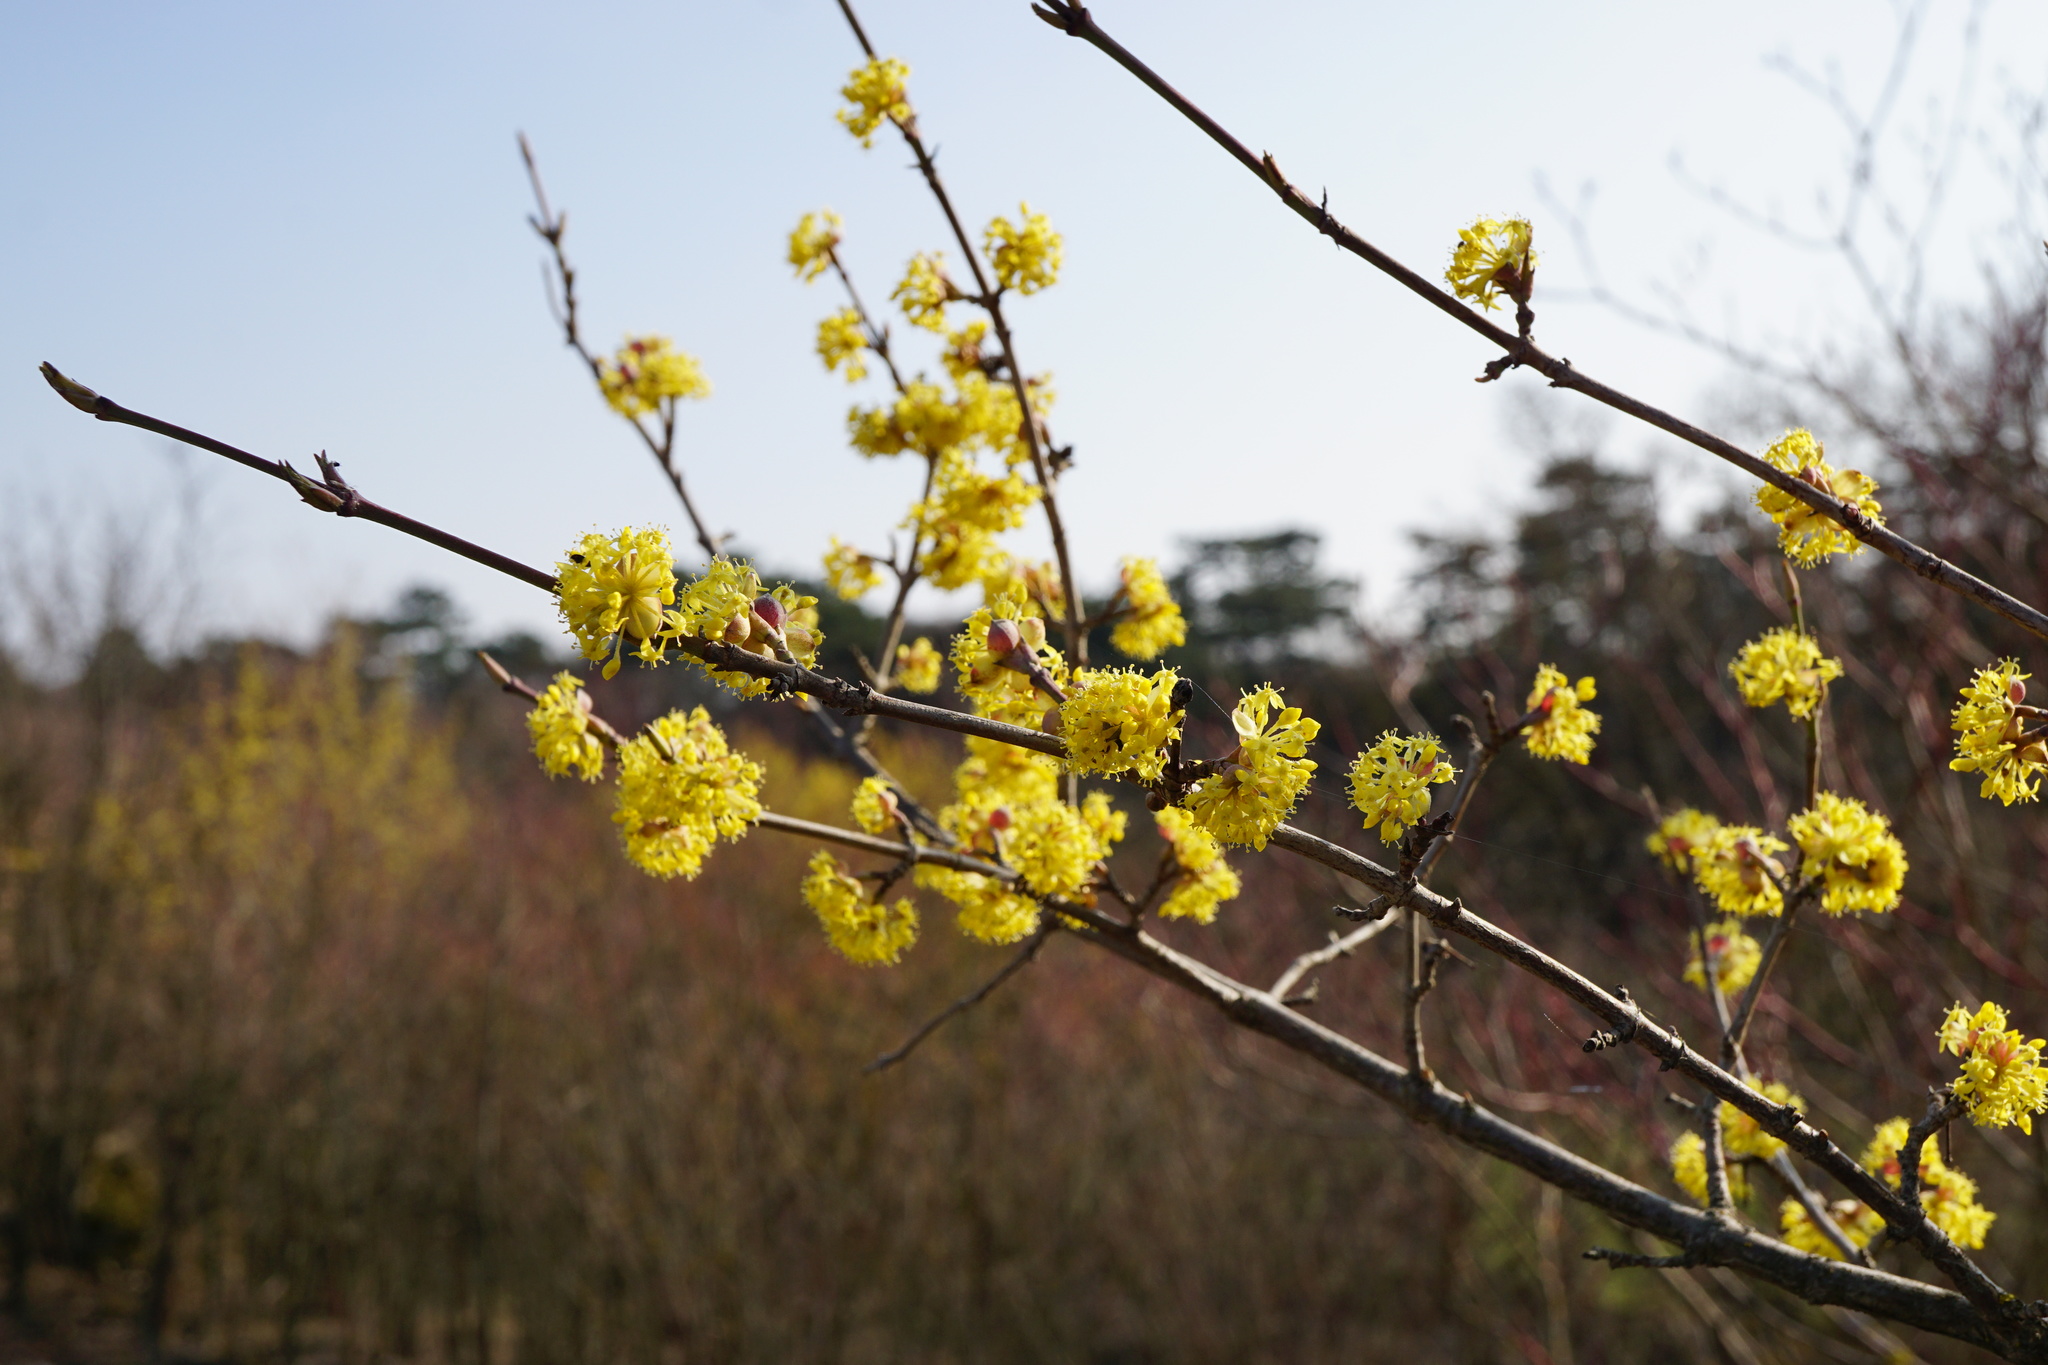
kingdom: Plantae
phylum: Tracheophyta
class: Magnoliopsida
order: Cornales
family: Cornaceae
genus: Cornus
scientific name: Cornus mas
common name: Cornelian-cherry
